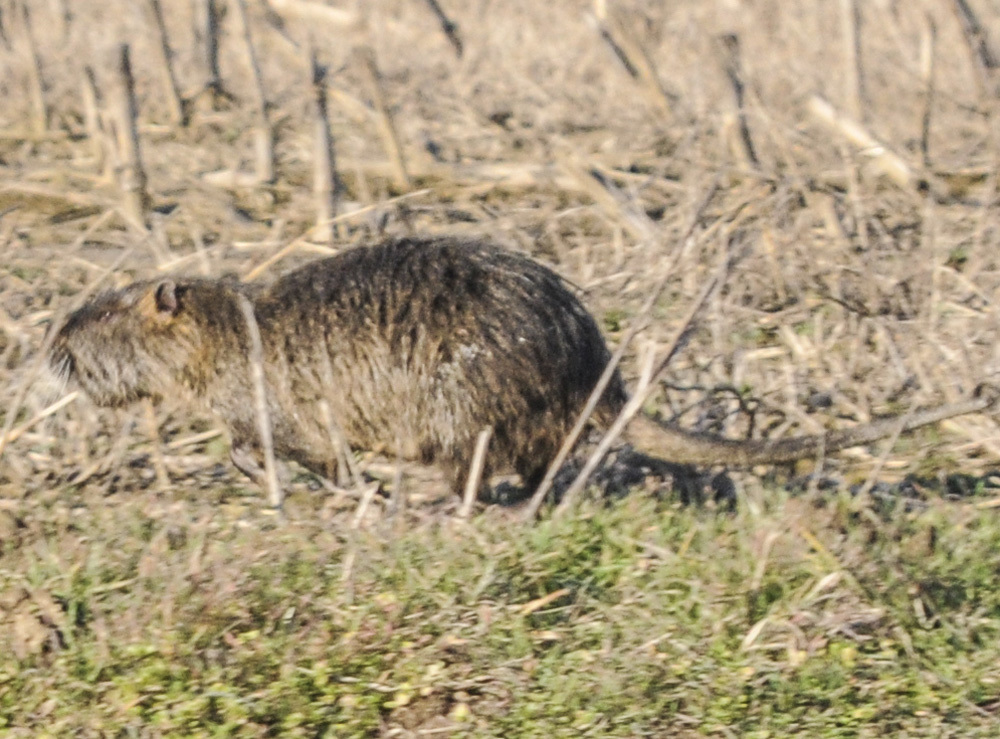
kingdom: Animalia
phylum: Chordata
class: Mammalia
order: Rodentia
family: Myocastoridae
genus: Myocastor
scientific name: Myocastor coypus
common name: Coypu
